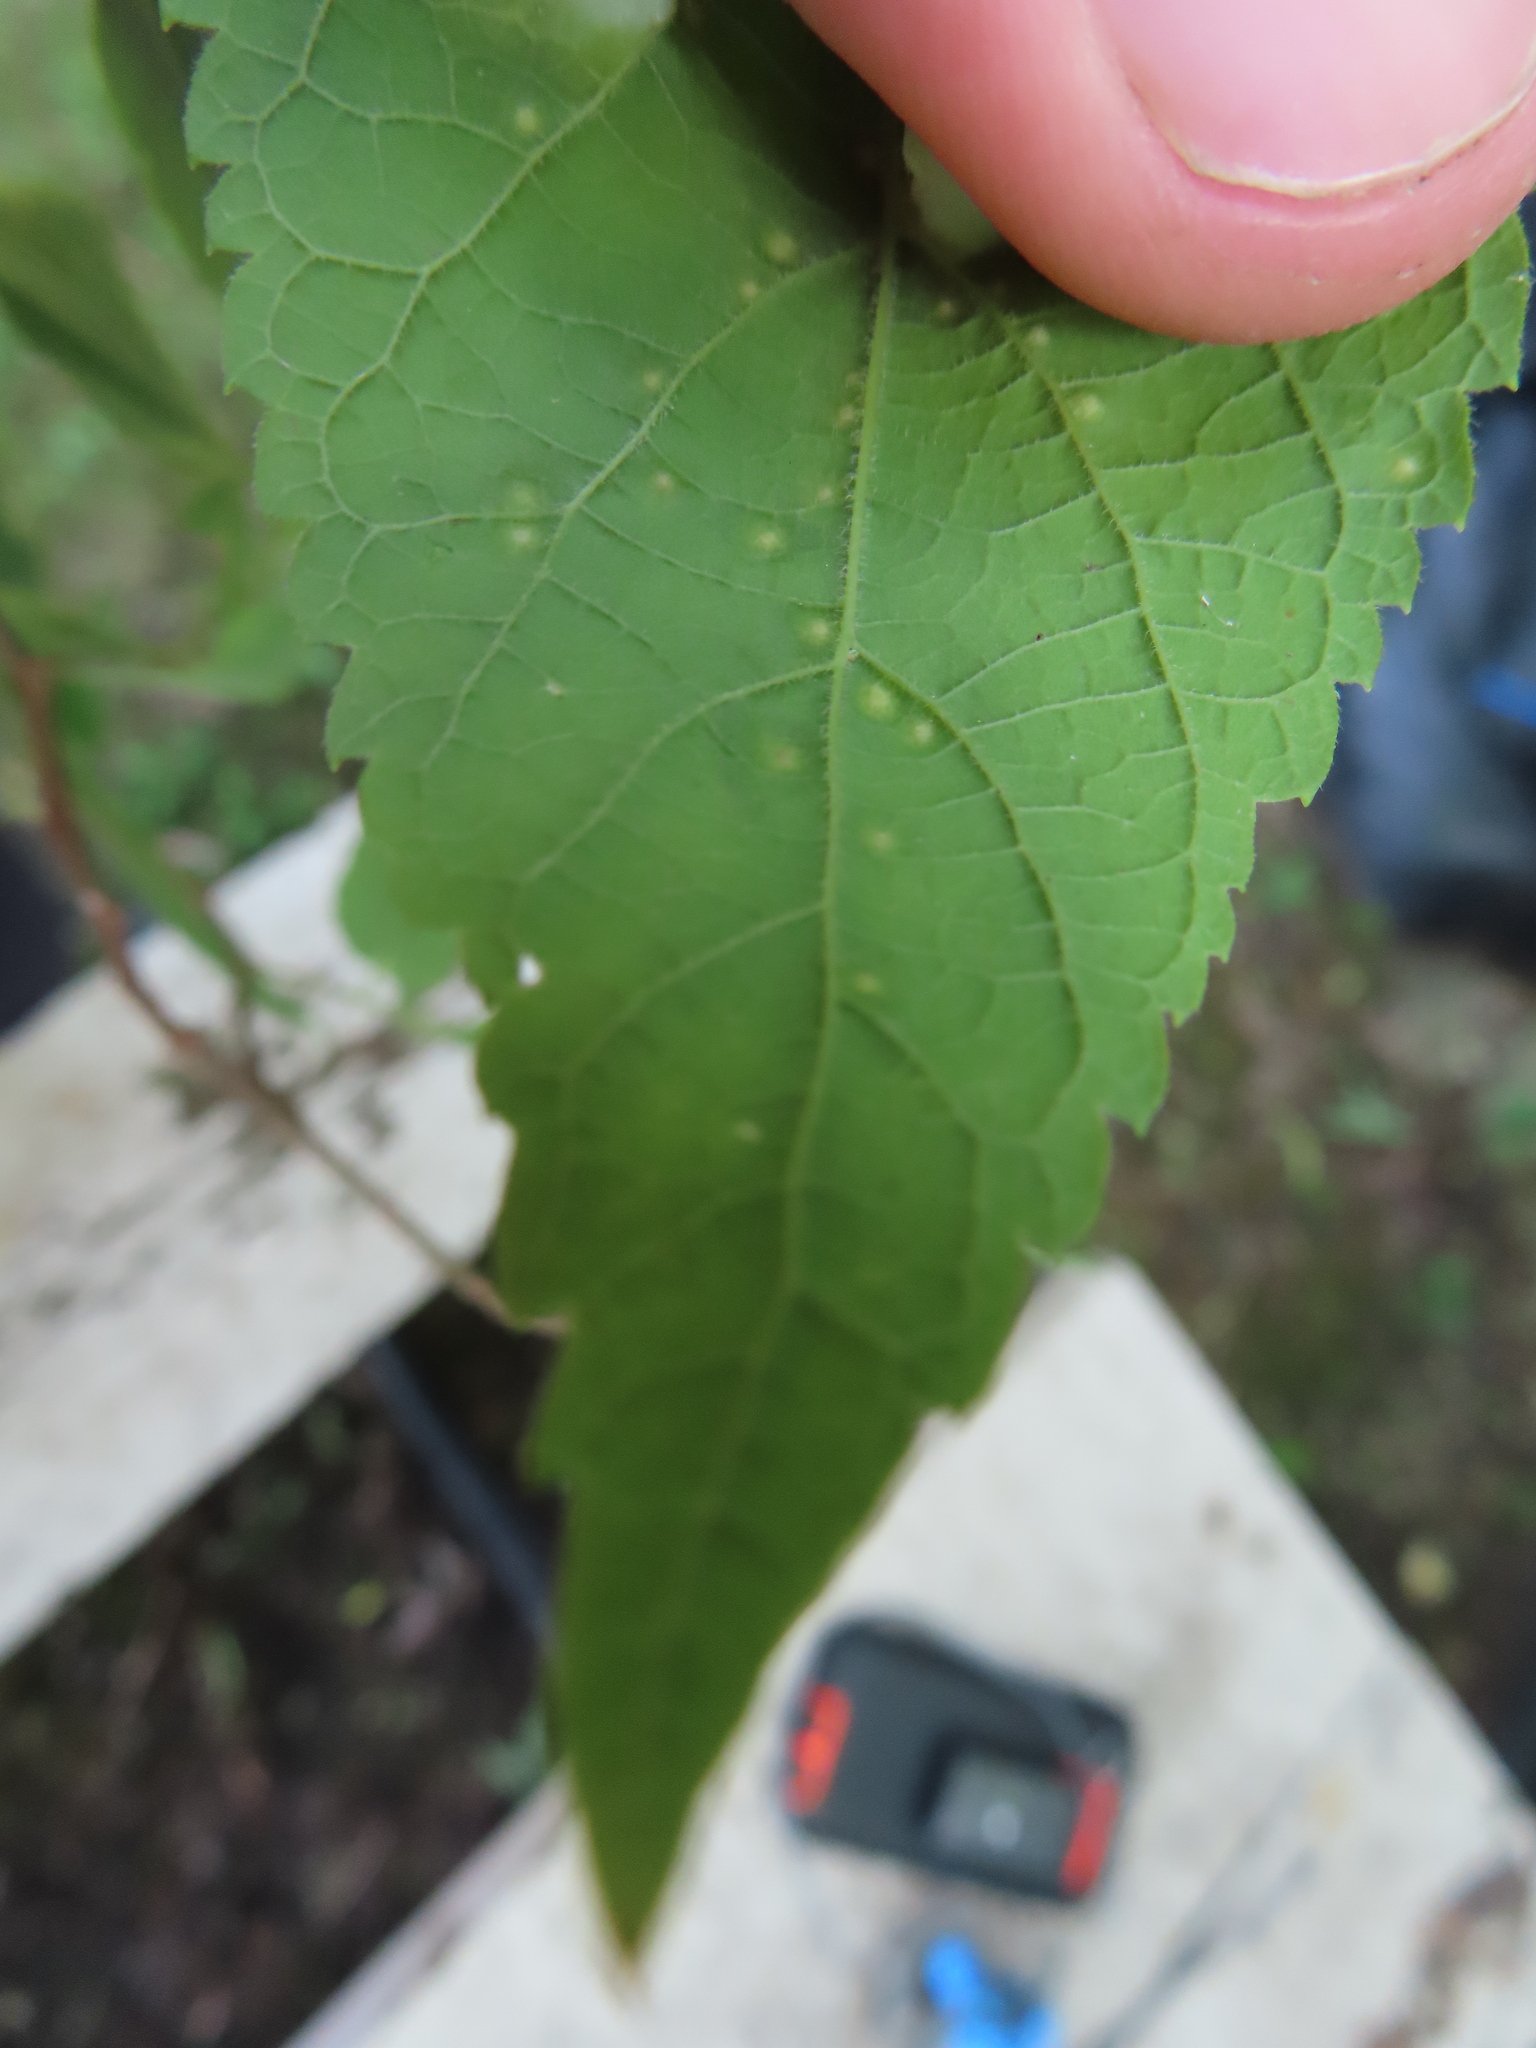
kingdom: Animalia
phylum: Arthropoda
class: Insecta
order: Hemiptera
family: Aphalaridae
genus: Pachypsylla
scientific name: Pachypsylla celtidisvesicula
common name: Hackberry blister gall psyllid
